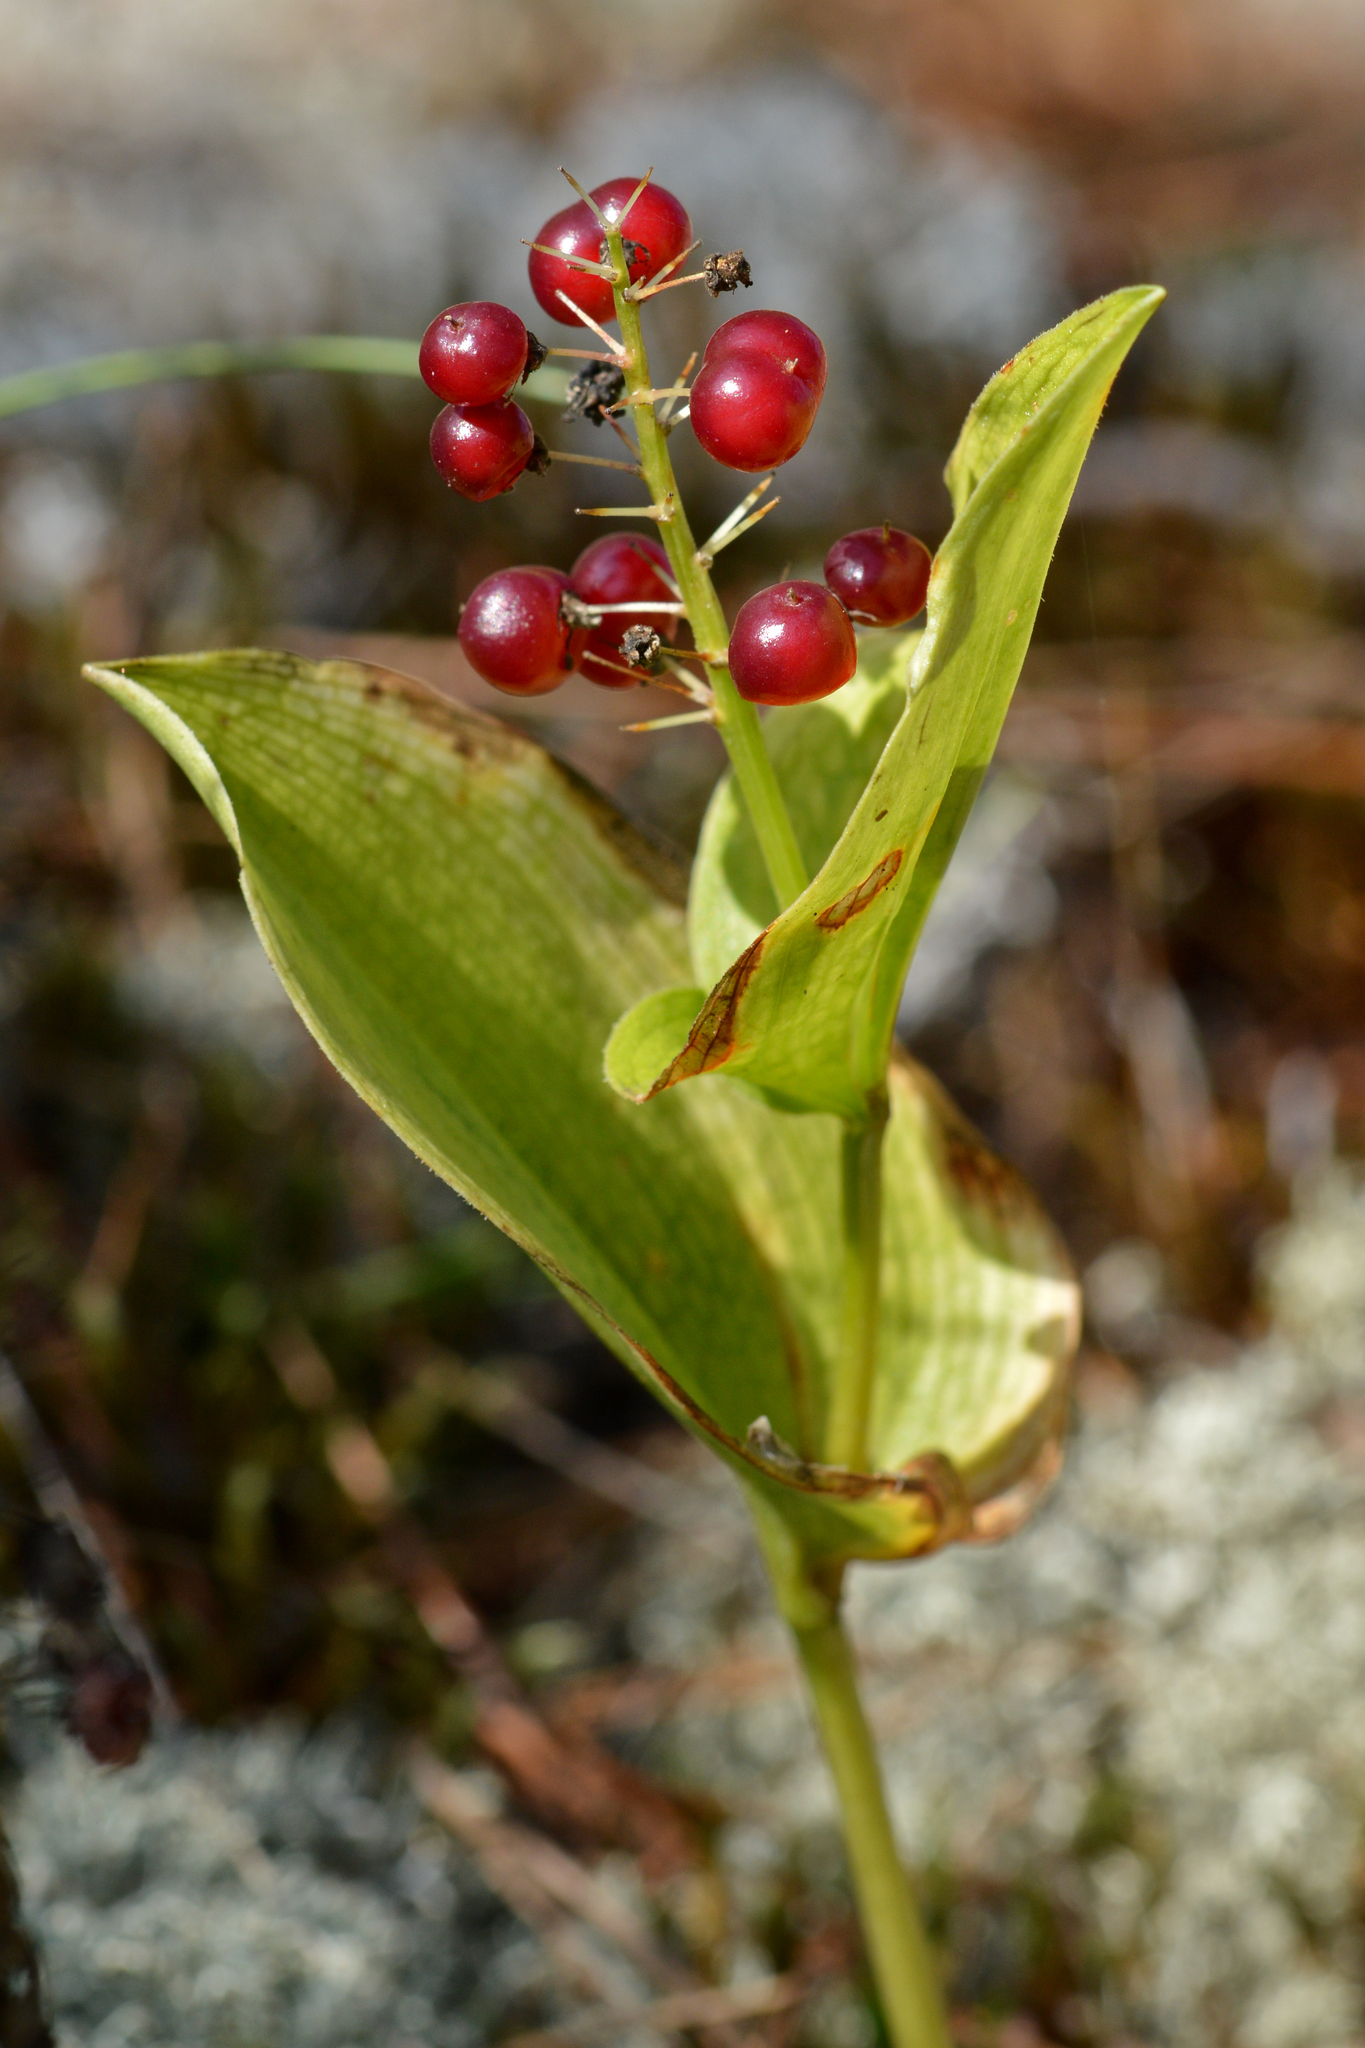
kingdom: Plantae
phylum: Tracheophyta
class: Liliopsida
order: Asparagales
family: Asparagaceae
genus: Maianthemum
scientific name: Maianthemum canadense
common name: False lily-of-the-valley
